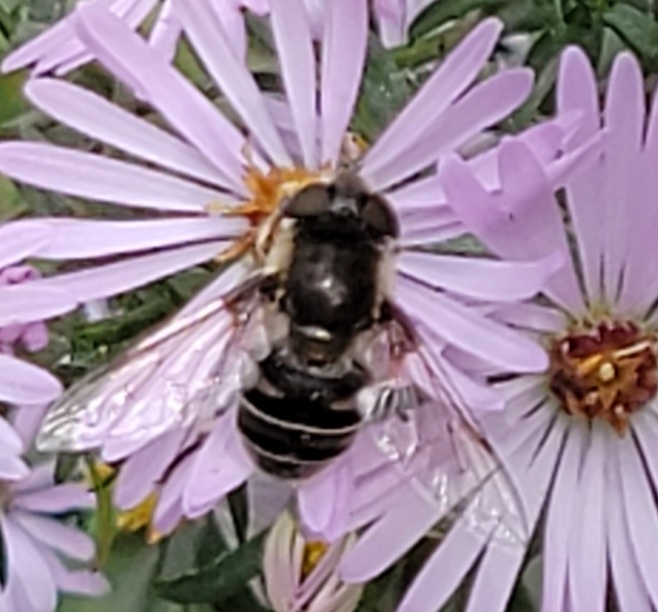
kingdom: Animalia
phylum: Arthropoda
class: Insecta
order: Diptera
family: Syrphidae
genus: Eristalis
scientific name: Eristalis dimidiata
